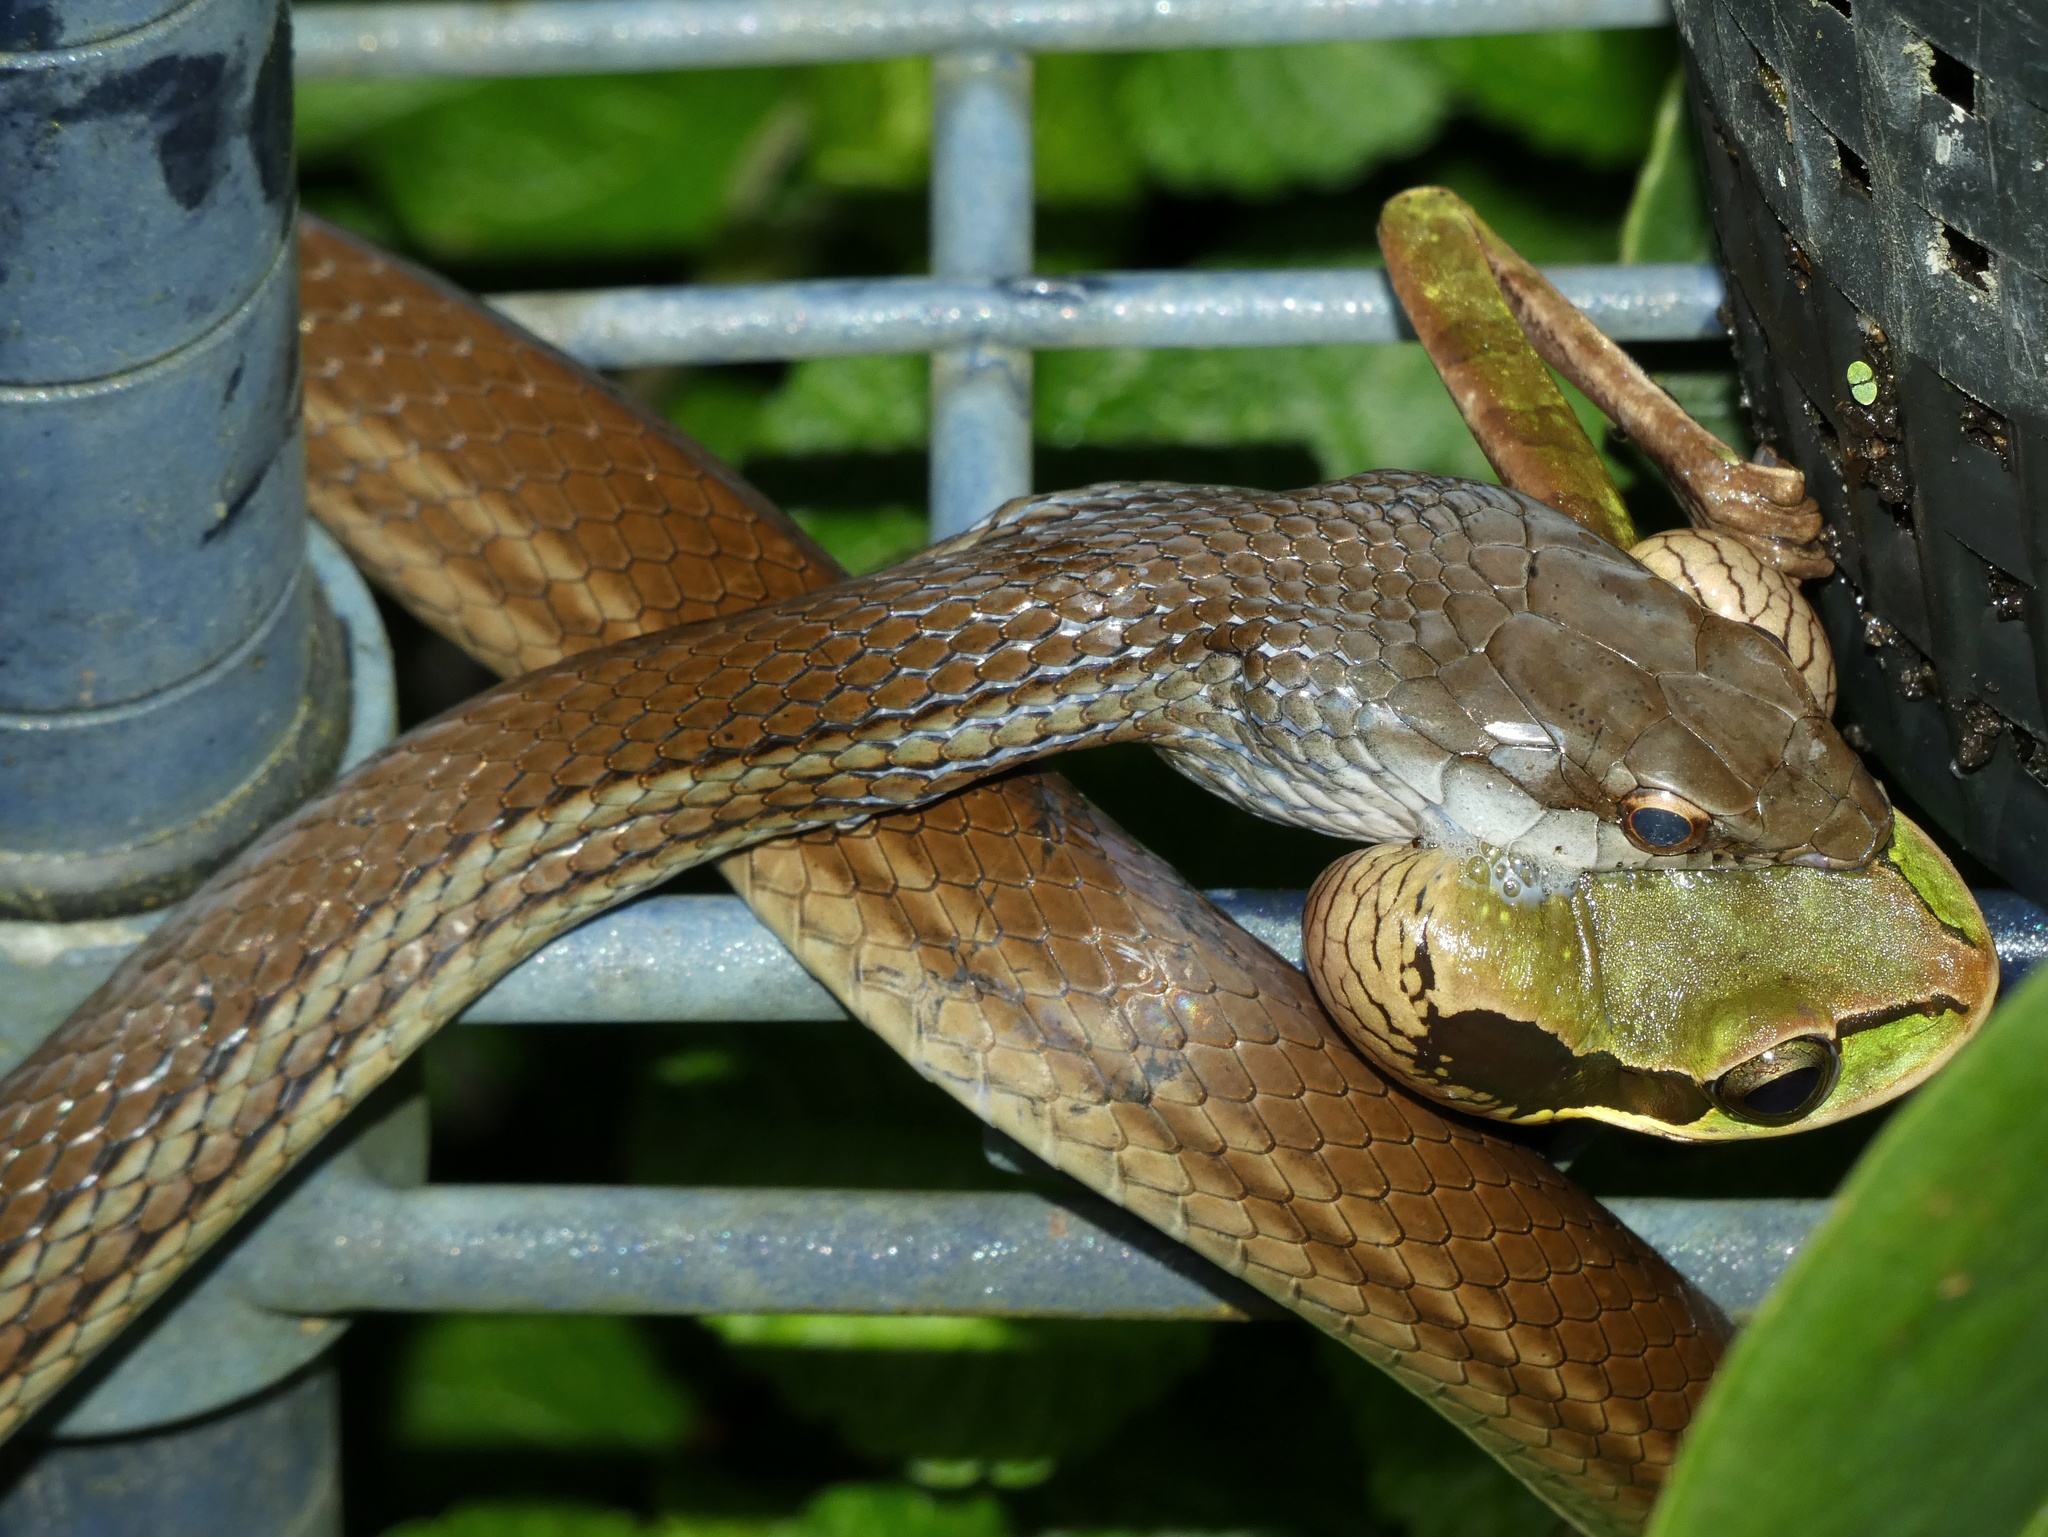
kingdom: Animalia
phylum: Chordata
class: Squamata
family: Colubridae
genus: Mastigodryas
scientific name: Mastigodryas alternatus
